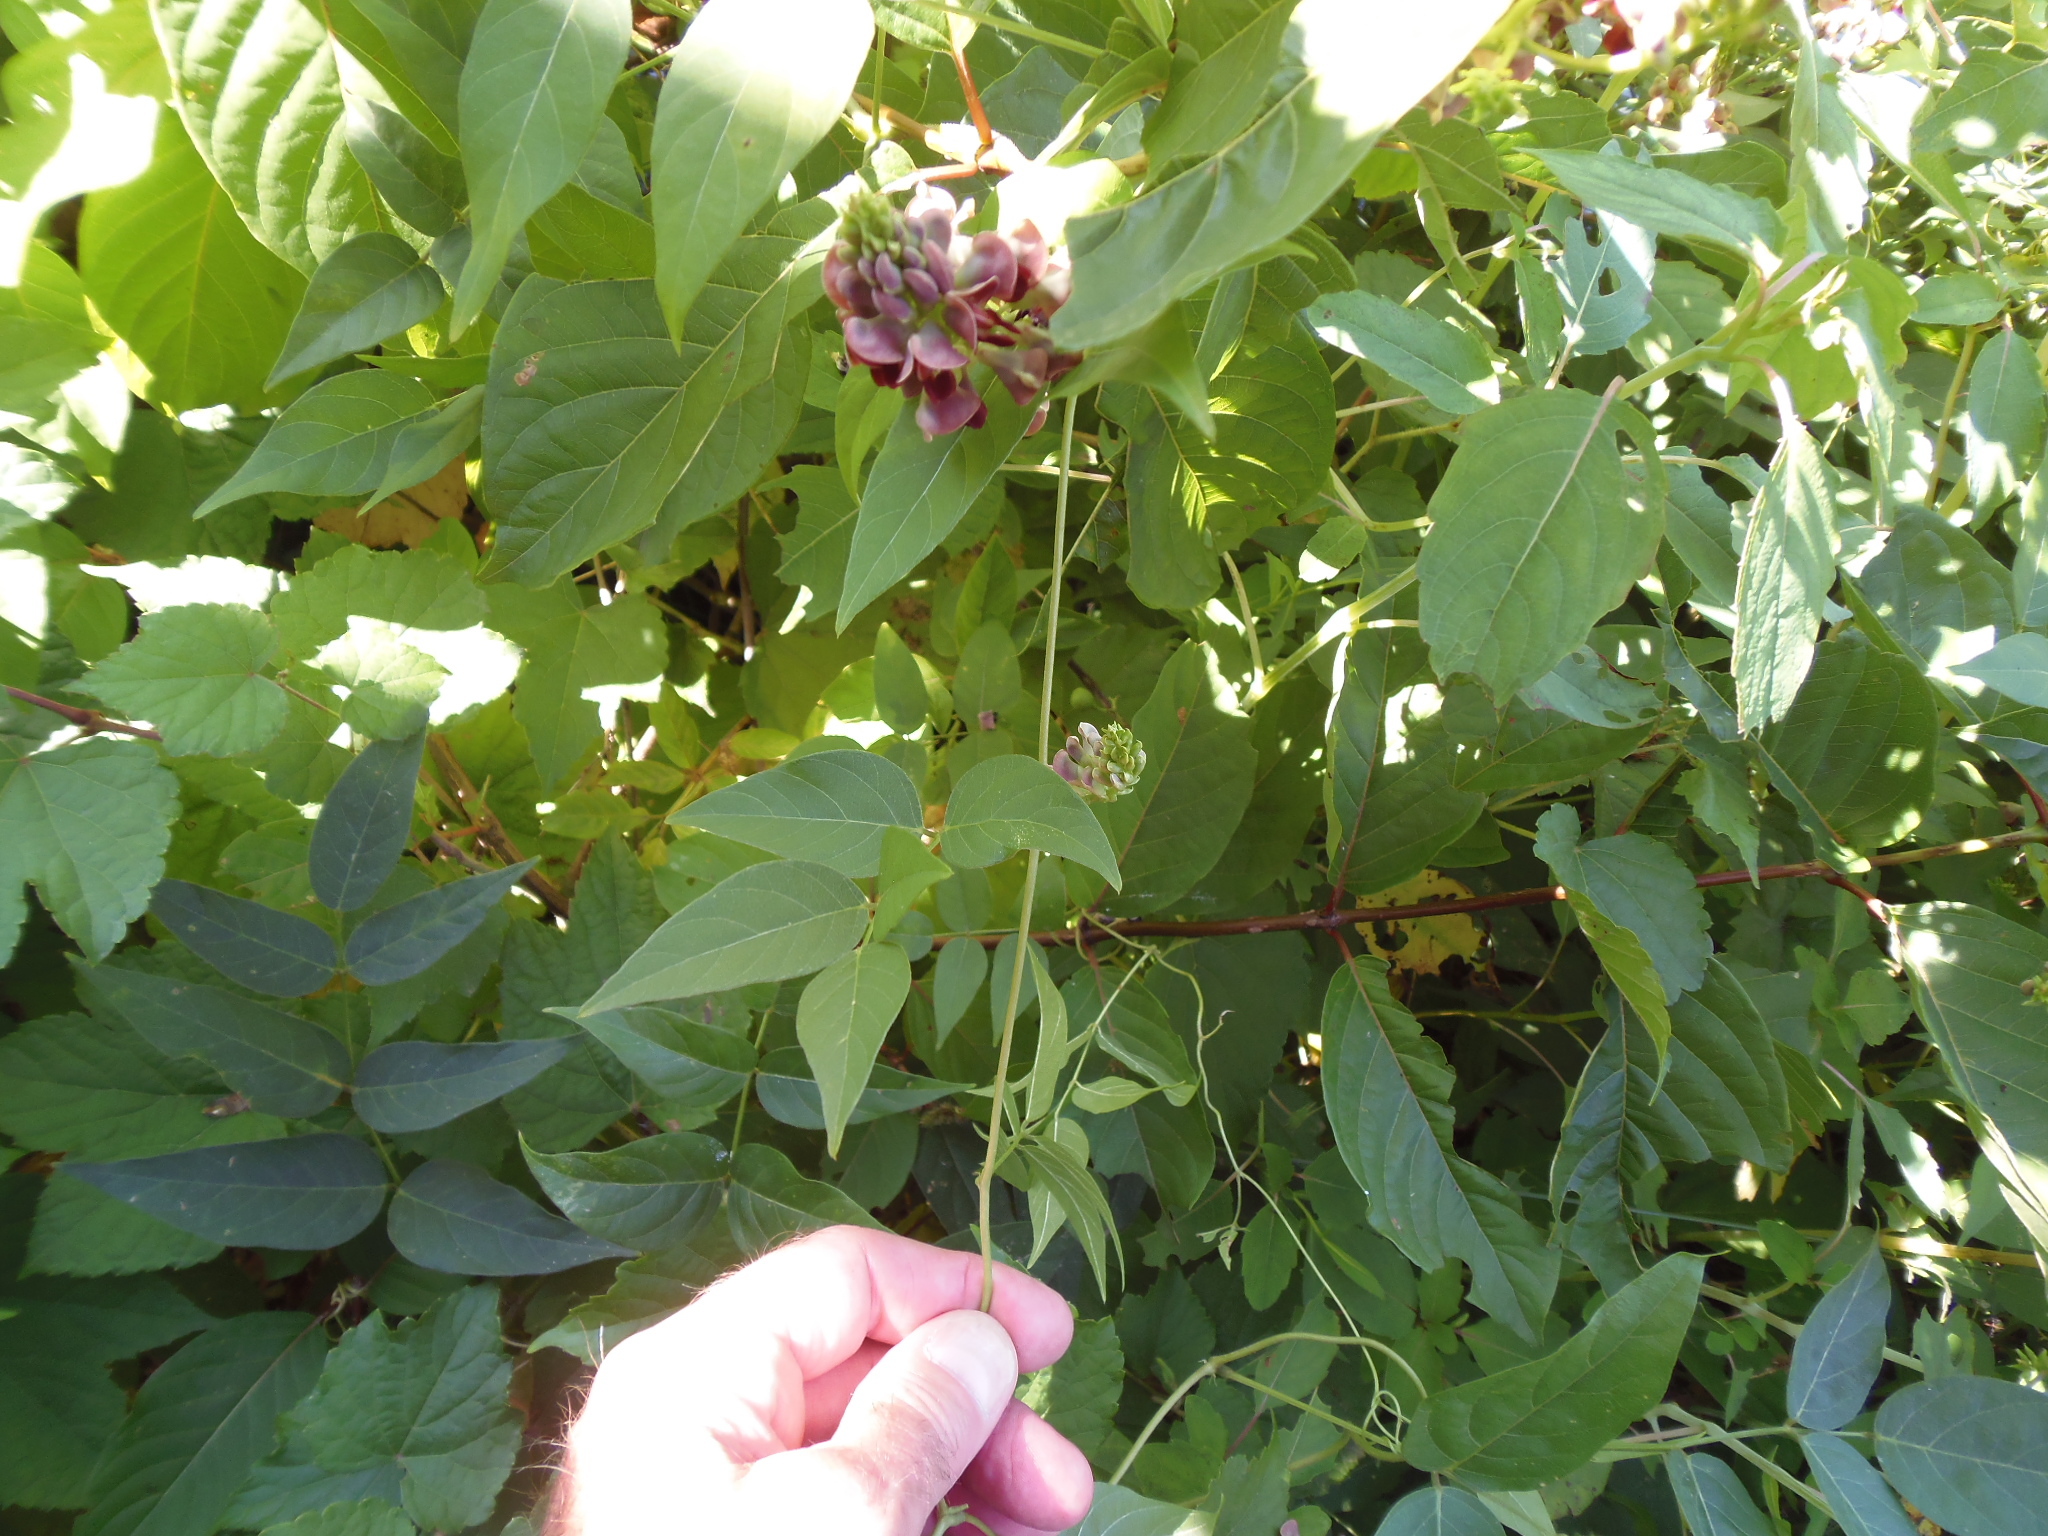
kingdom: Plantae
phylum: Tracheophyta
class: Magnoliopsida
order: Fabales
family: Fabaceae
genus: Apios
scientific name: Apios americana
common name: American potato-bean
